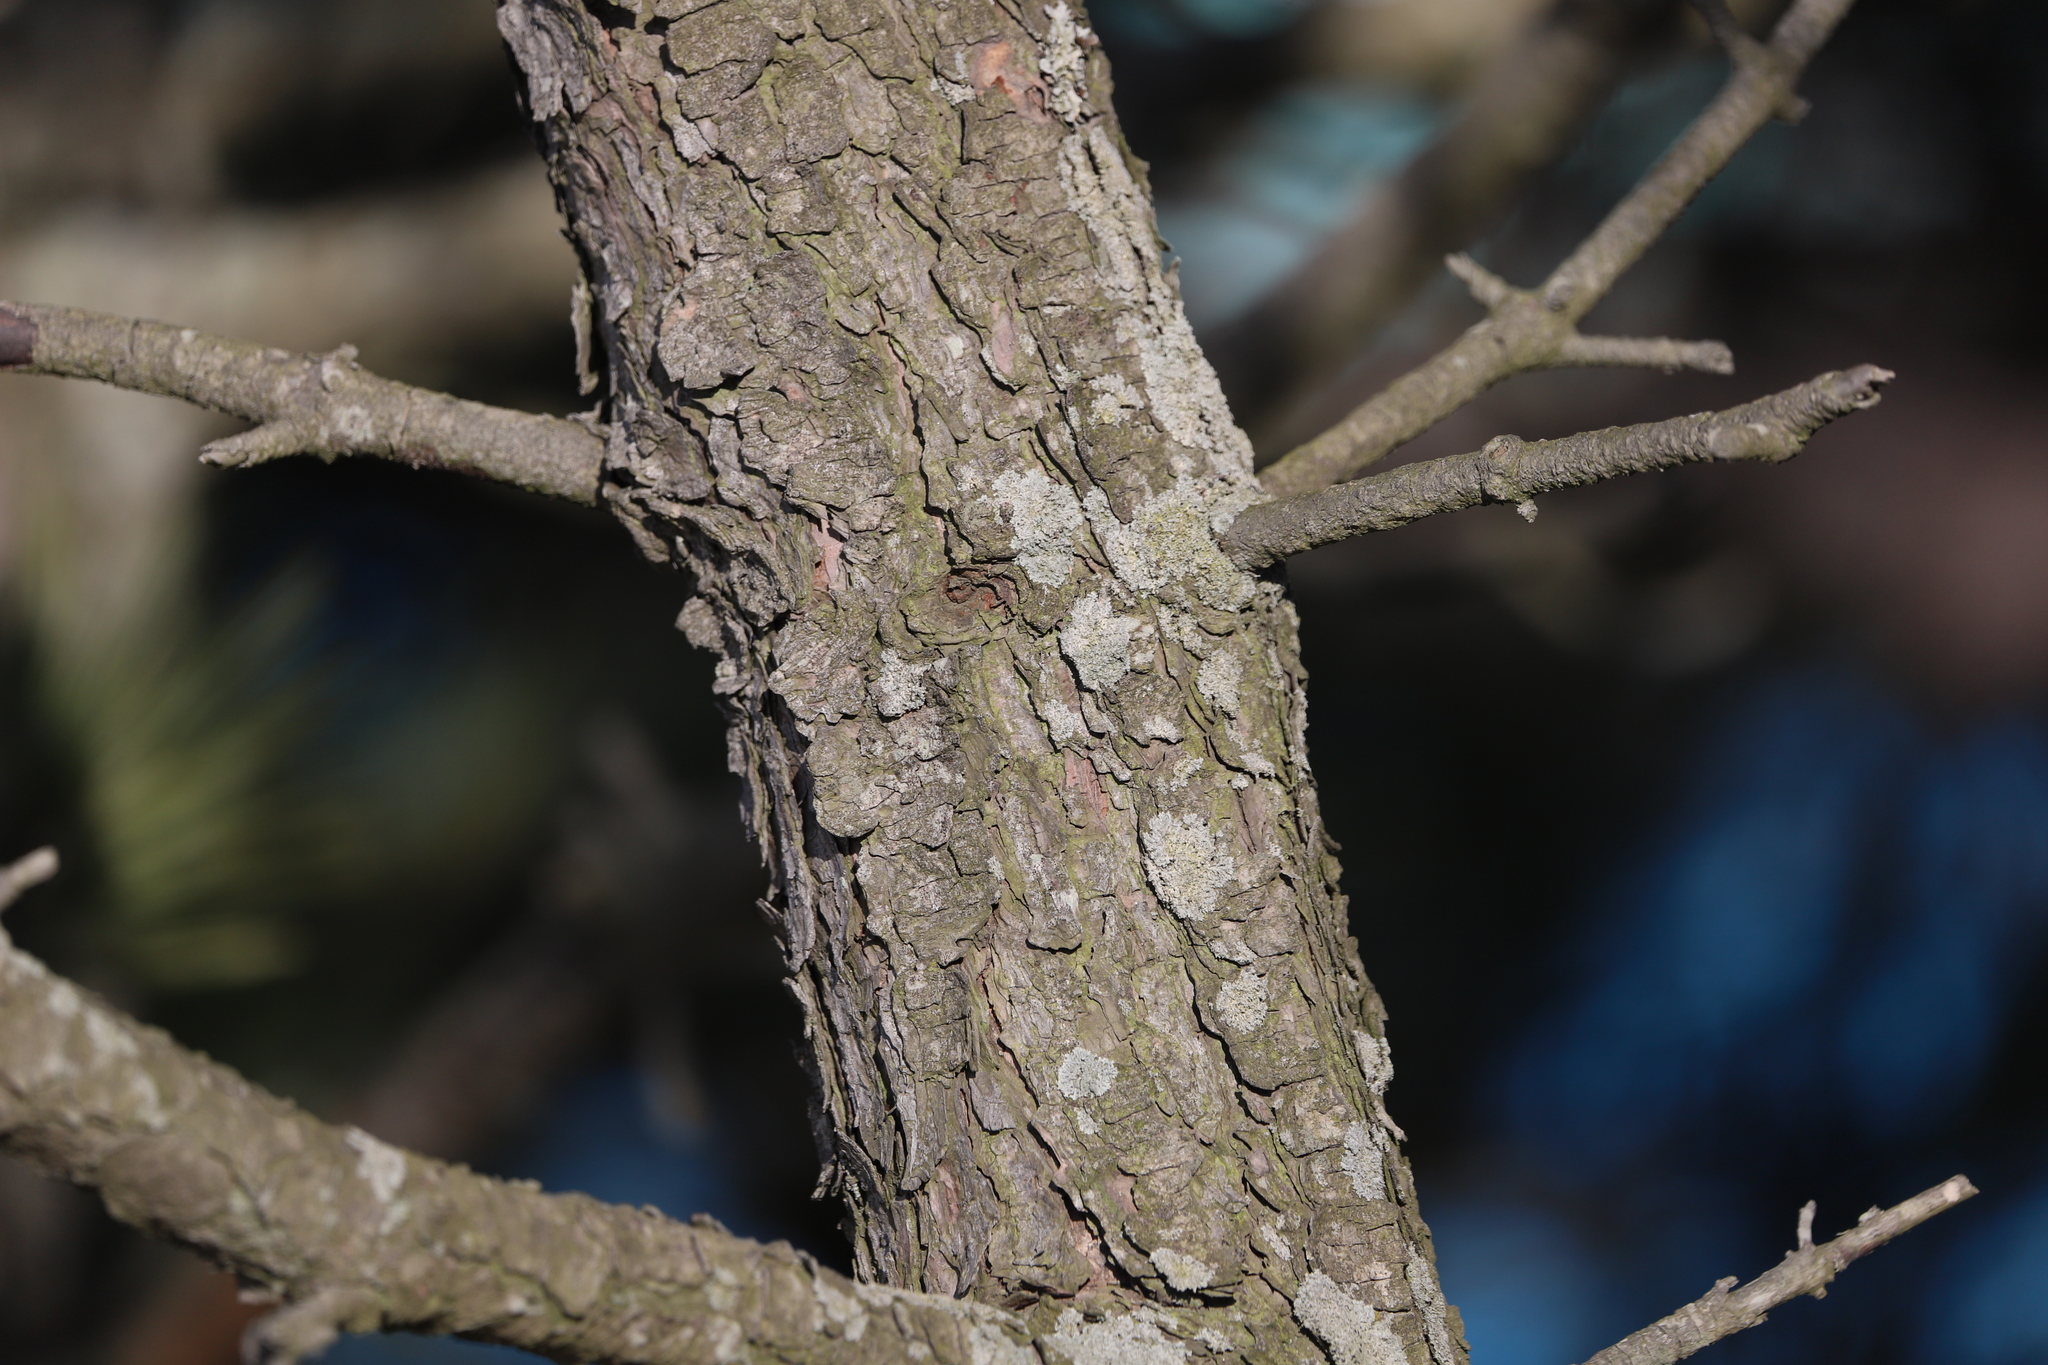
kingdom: Plantae
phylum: Tracheophyta
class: Pinopsida
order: Pinales
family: Pinaceae
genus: Pinus
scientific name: Pinus rigida
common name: Pitch pine
